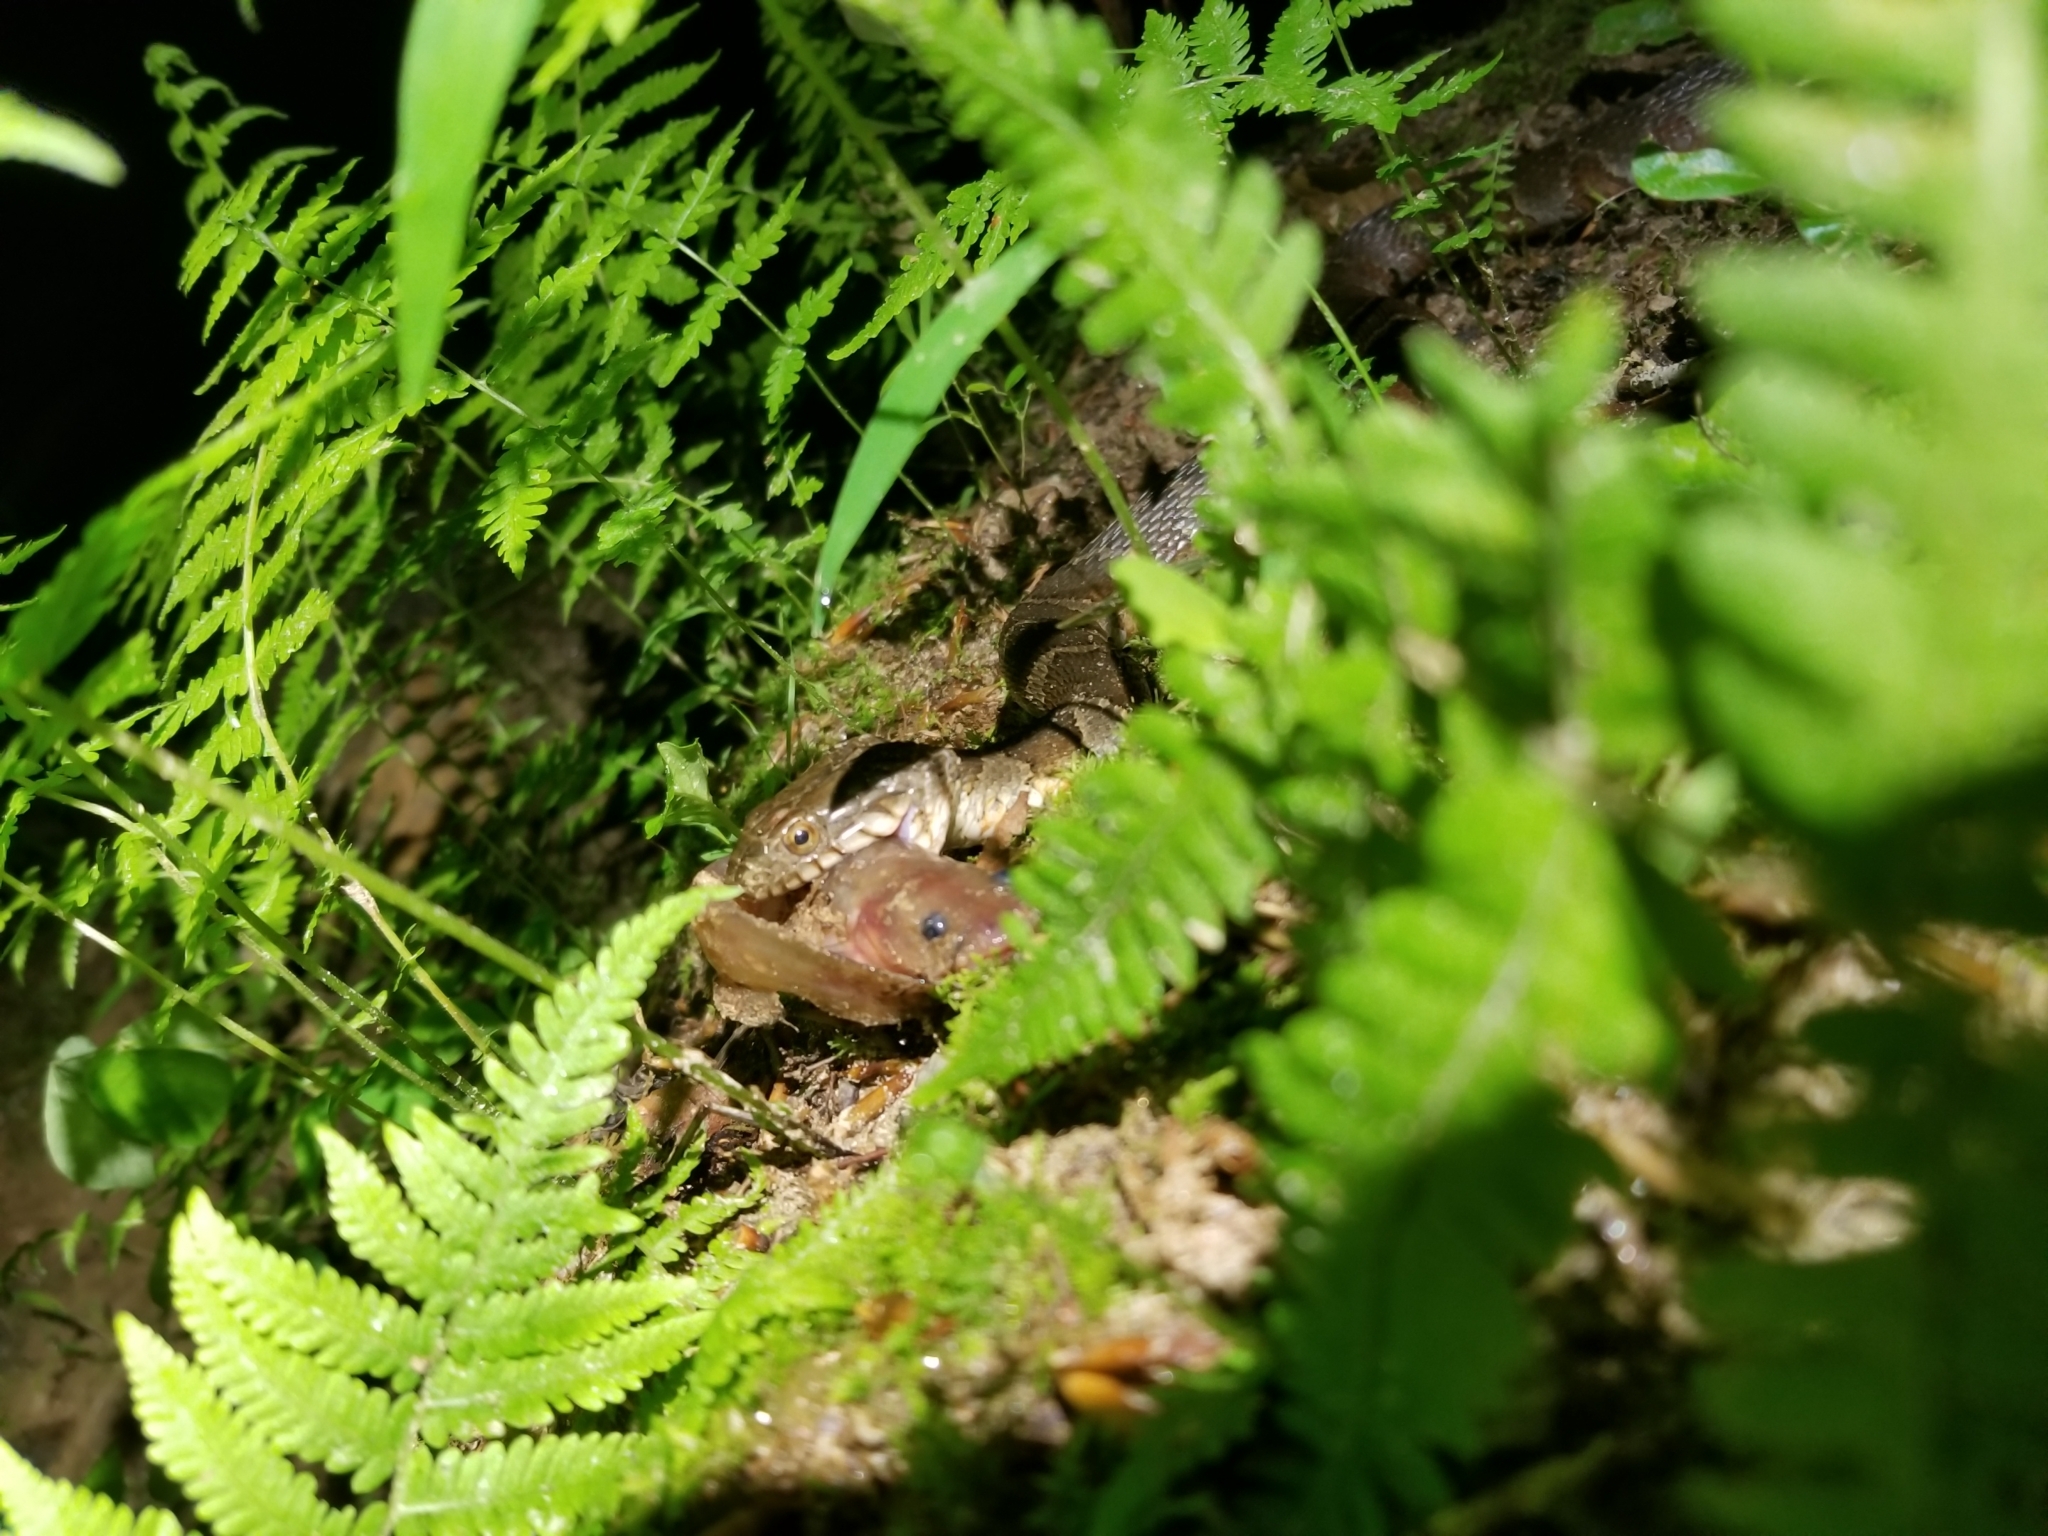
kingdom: Animalia
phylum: Chordata
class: Squamata
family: Colubridae
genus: Nerodia
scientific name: Nerodia sipedon
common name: Northern water snake
